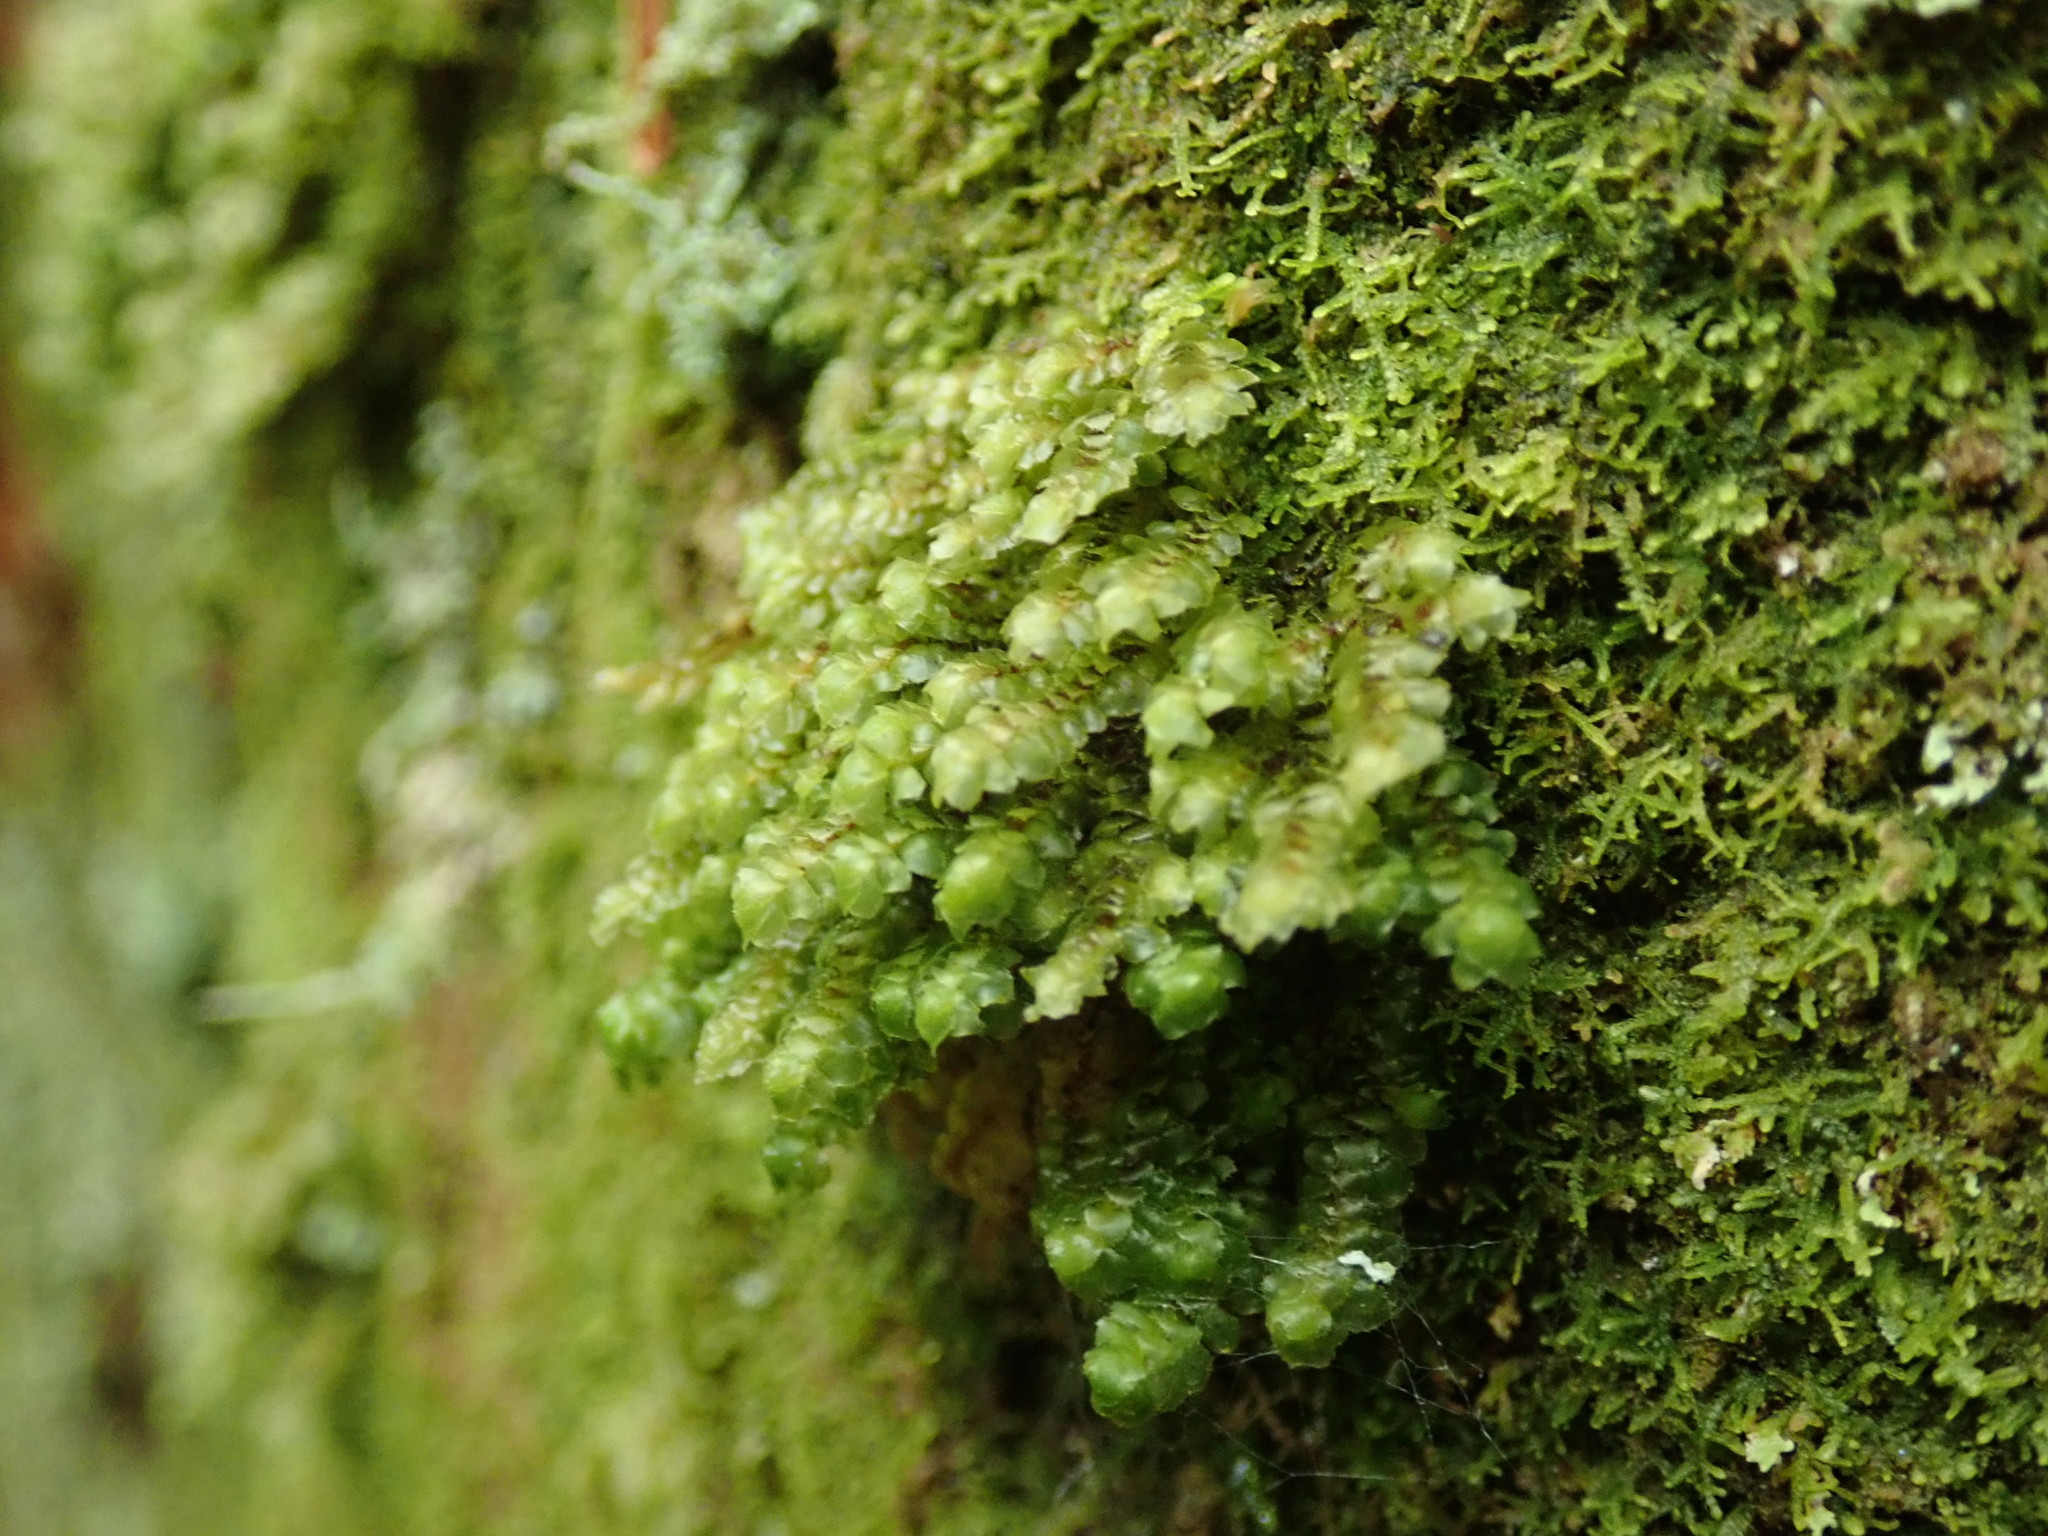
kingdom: Plantae
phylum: Marchantiophyta
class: Jungermanniopsida
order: Jungermanniales
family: Scapaniaceae
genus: Scapania
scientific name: Scapania bolanderi
